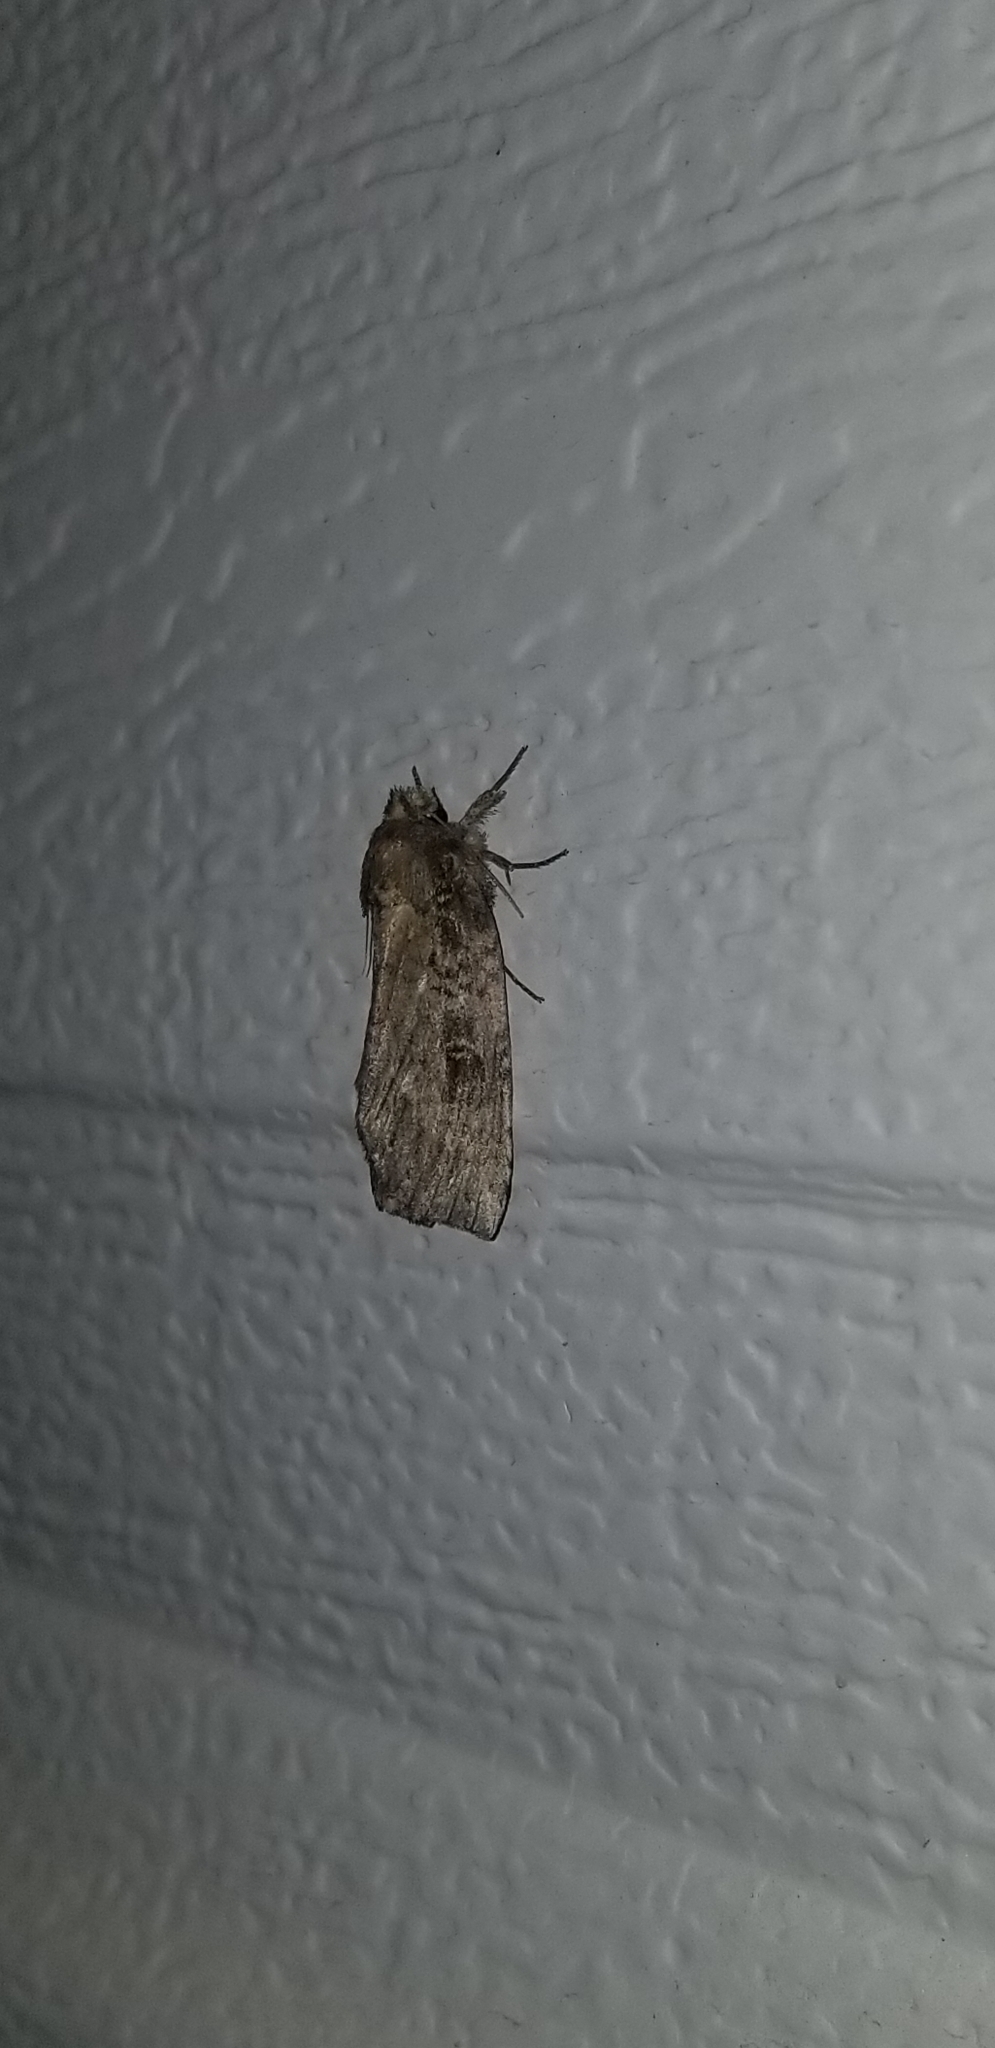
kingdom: Animalia
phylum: Arthropoda
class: Insecta
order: Lepidoptera
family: Notodontidae
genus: Schizura
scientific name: Schizura ipomaeae
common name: Morning-glory prominent
